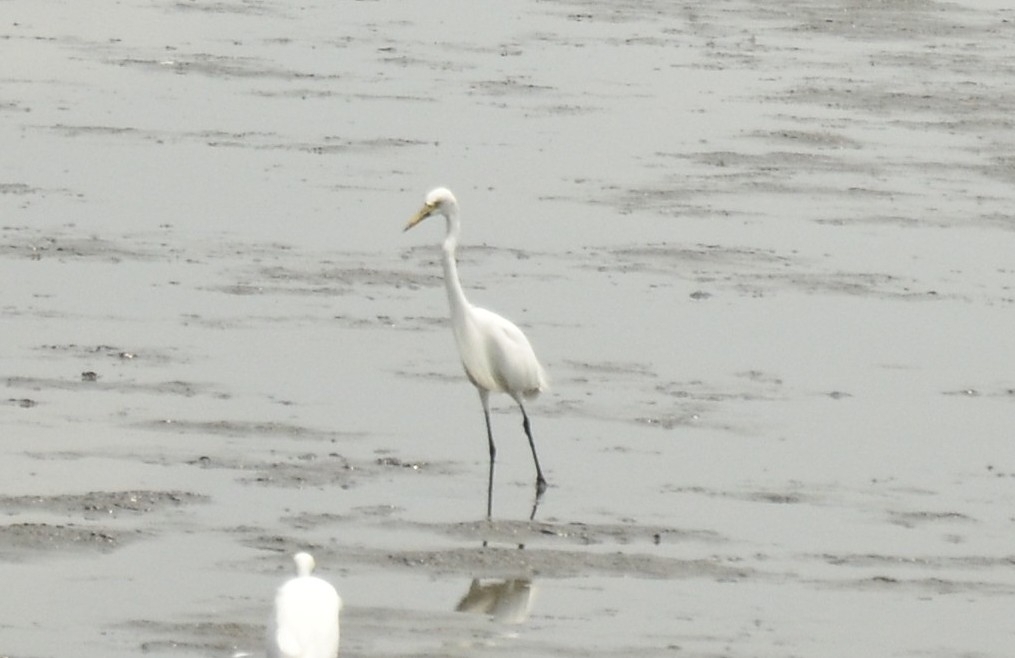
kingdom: Animalia
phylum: Chordata
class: Aves
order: Pelecaniformes
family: Ardeidae
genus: Ardea
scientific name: Ardea alba
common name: Great egret
